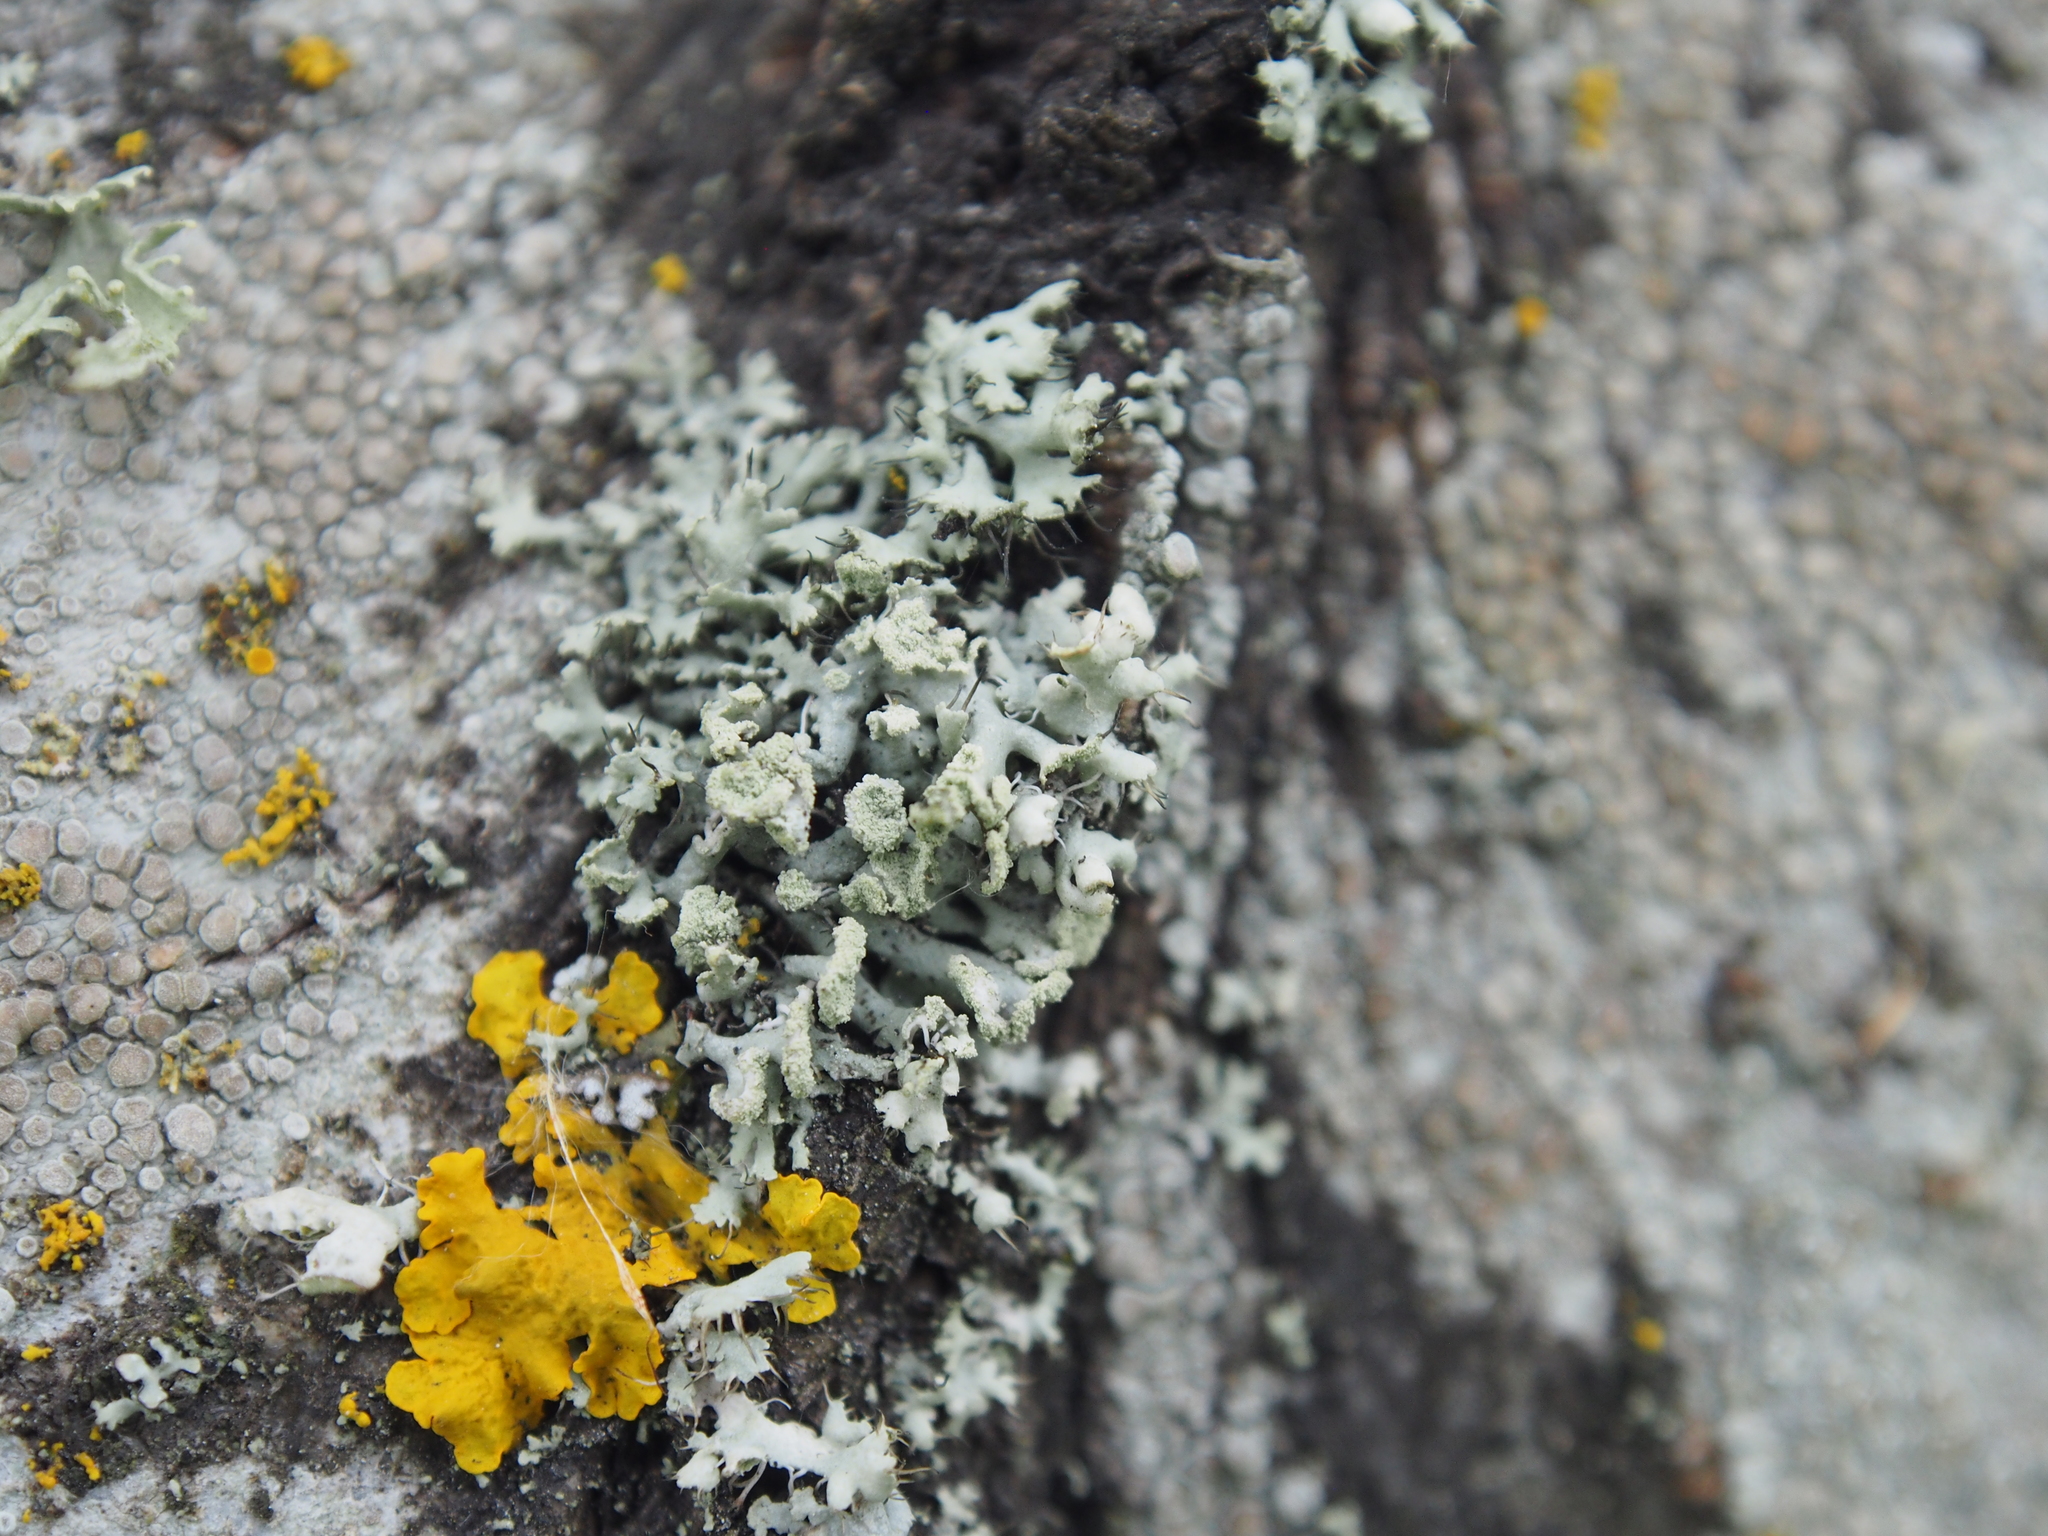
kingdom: Fungi
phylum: Ascomycota
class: Lecanoromycetes
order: Caliciales
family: Physciaceae
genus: Physcia
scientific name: Physcia tenella
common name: Fringed rosette lichen
